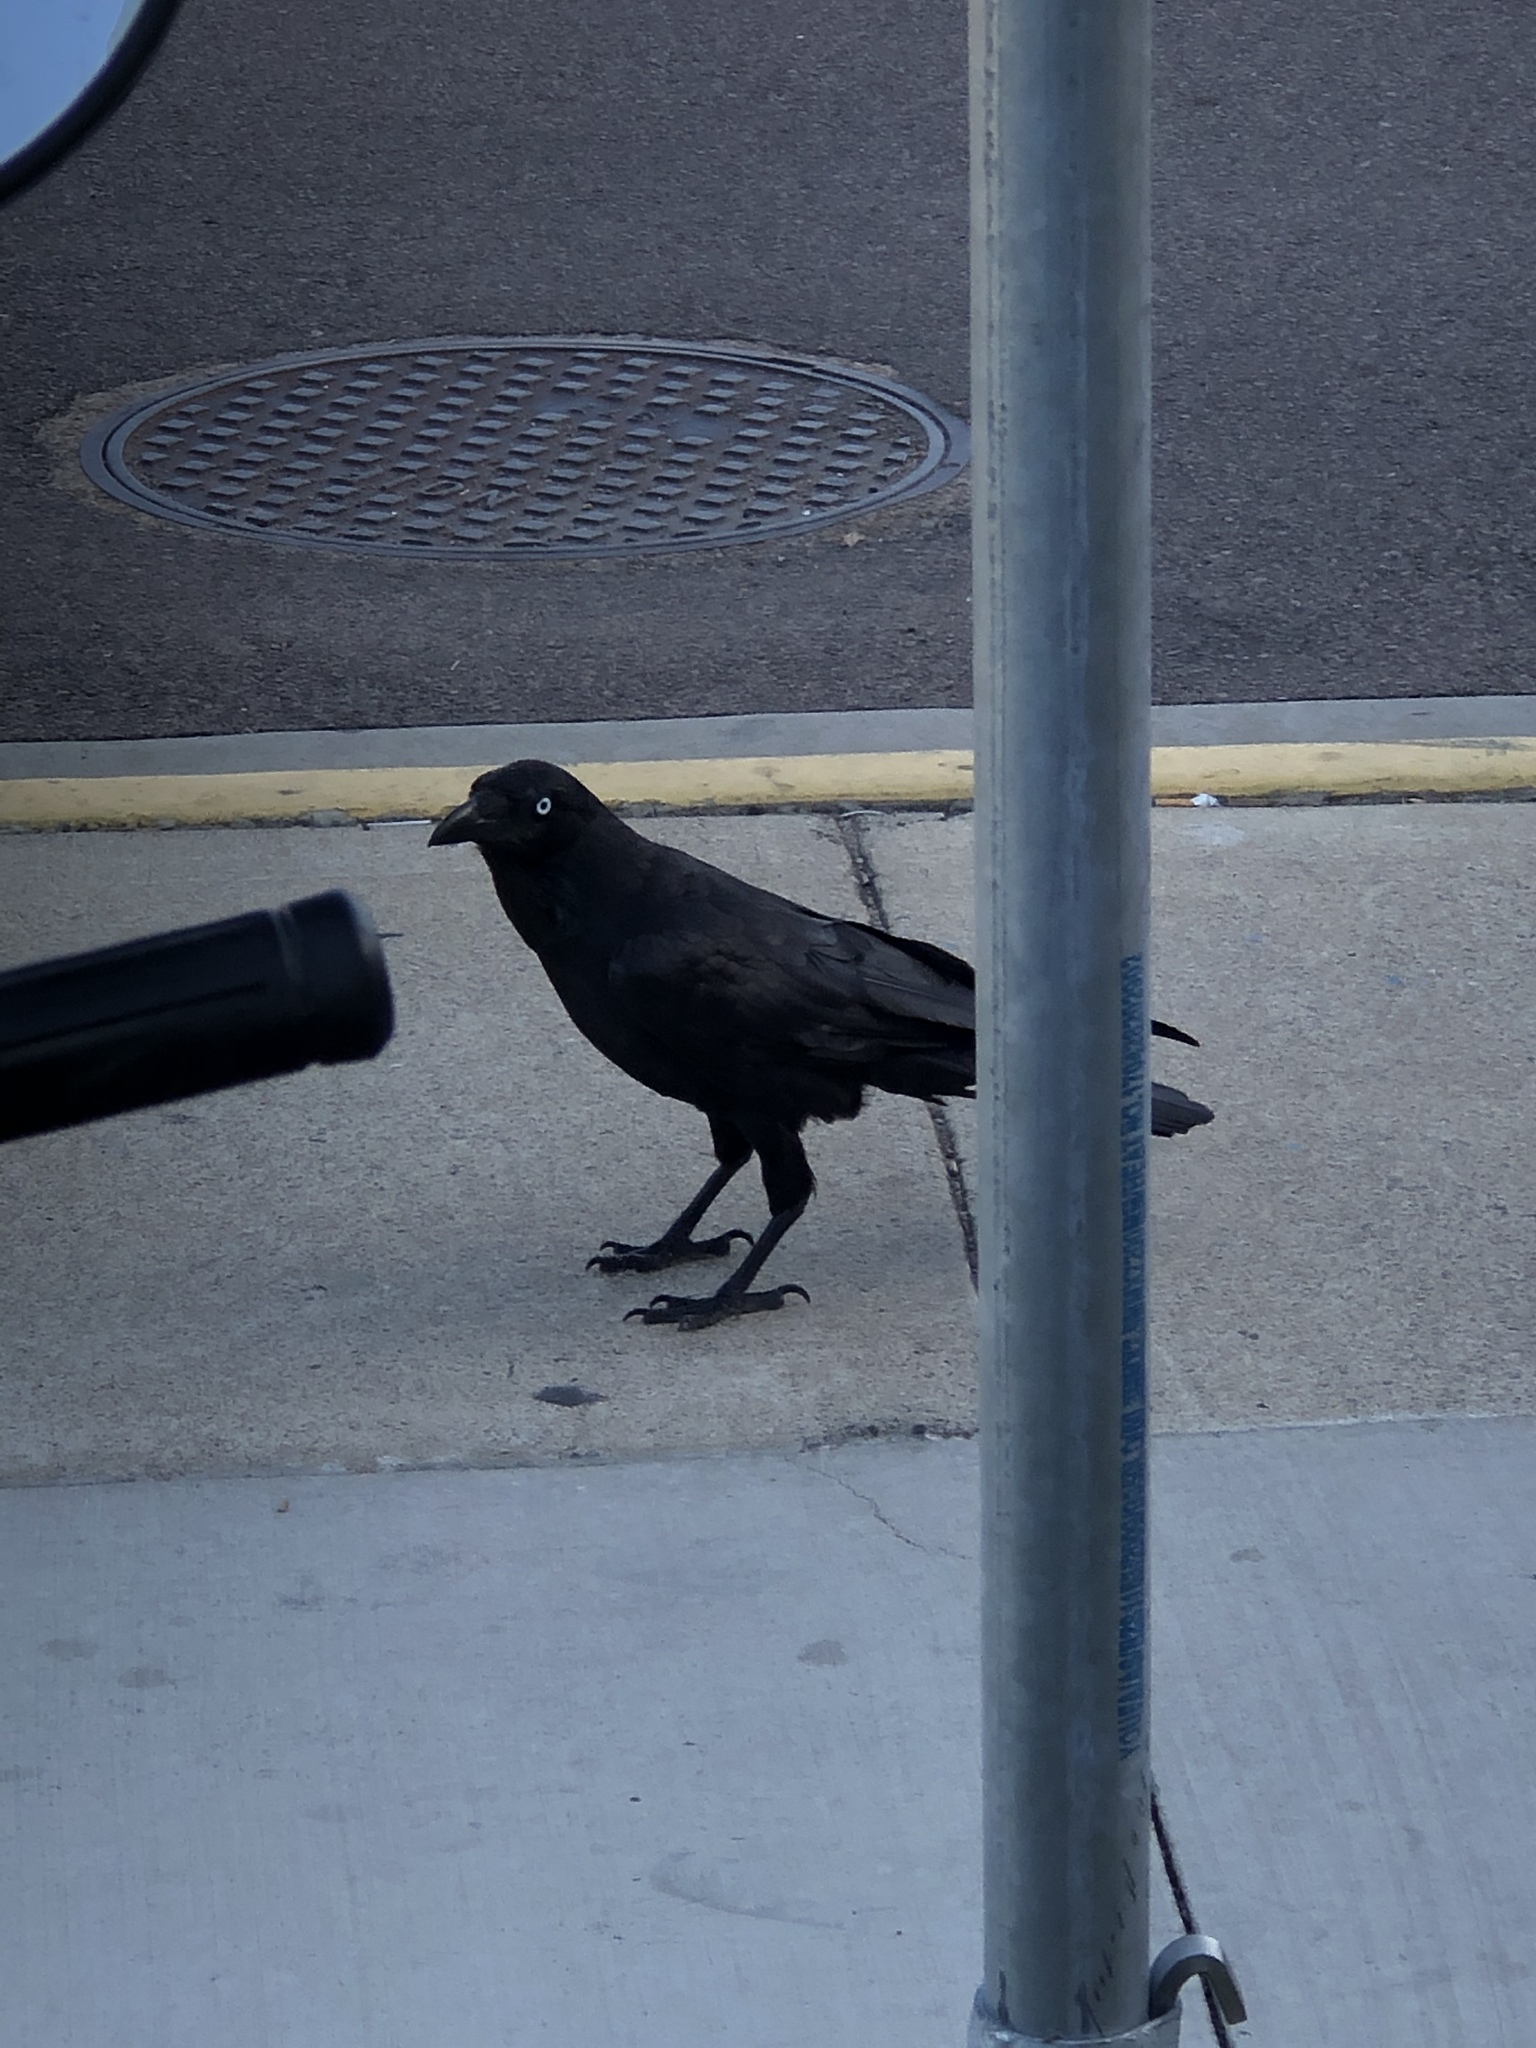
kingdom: Animalia
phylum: Chordata
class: Aves
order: Passeriformes
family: Corvidae
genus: Corvus
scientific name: Corvus orru
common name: Torresian crow
